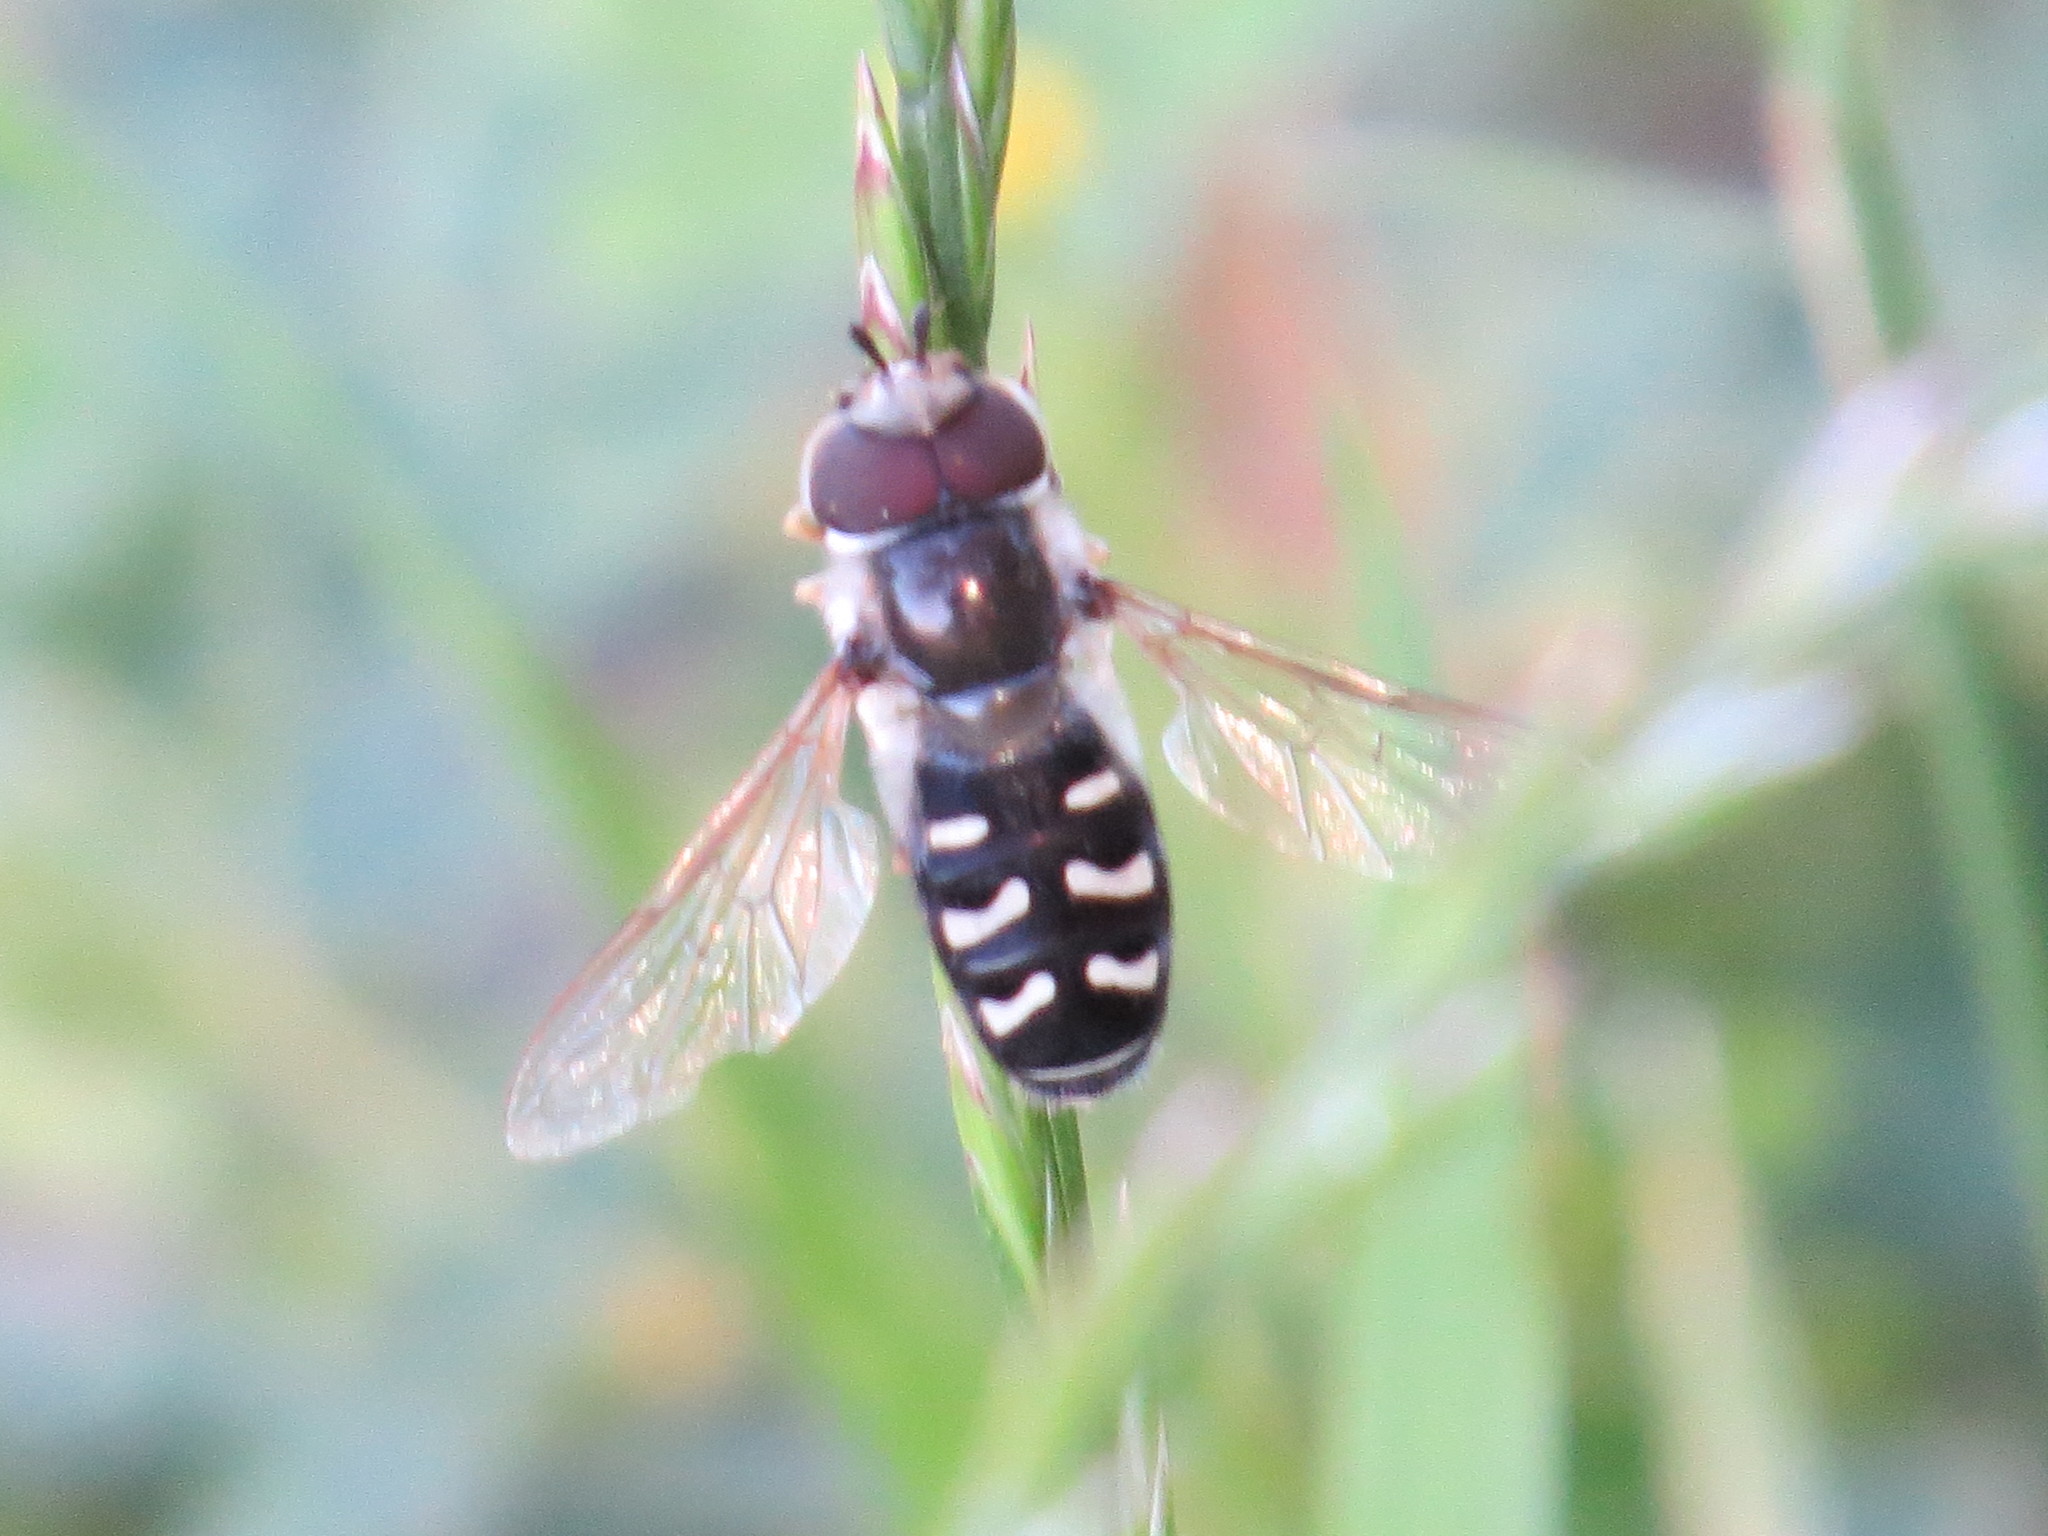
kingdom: Animalia
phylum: Arthropoda
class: Insecta
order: Diptera
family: Syrphidae
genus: Scaeva
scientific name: Scaeva affinis
